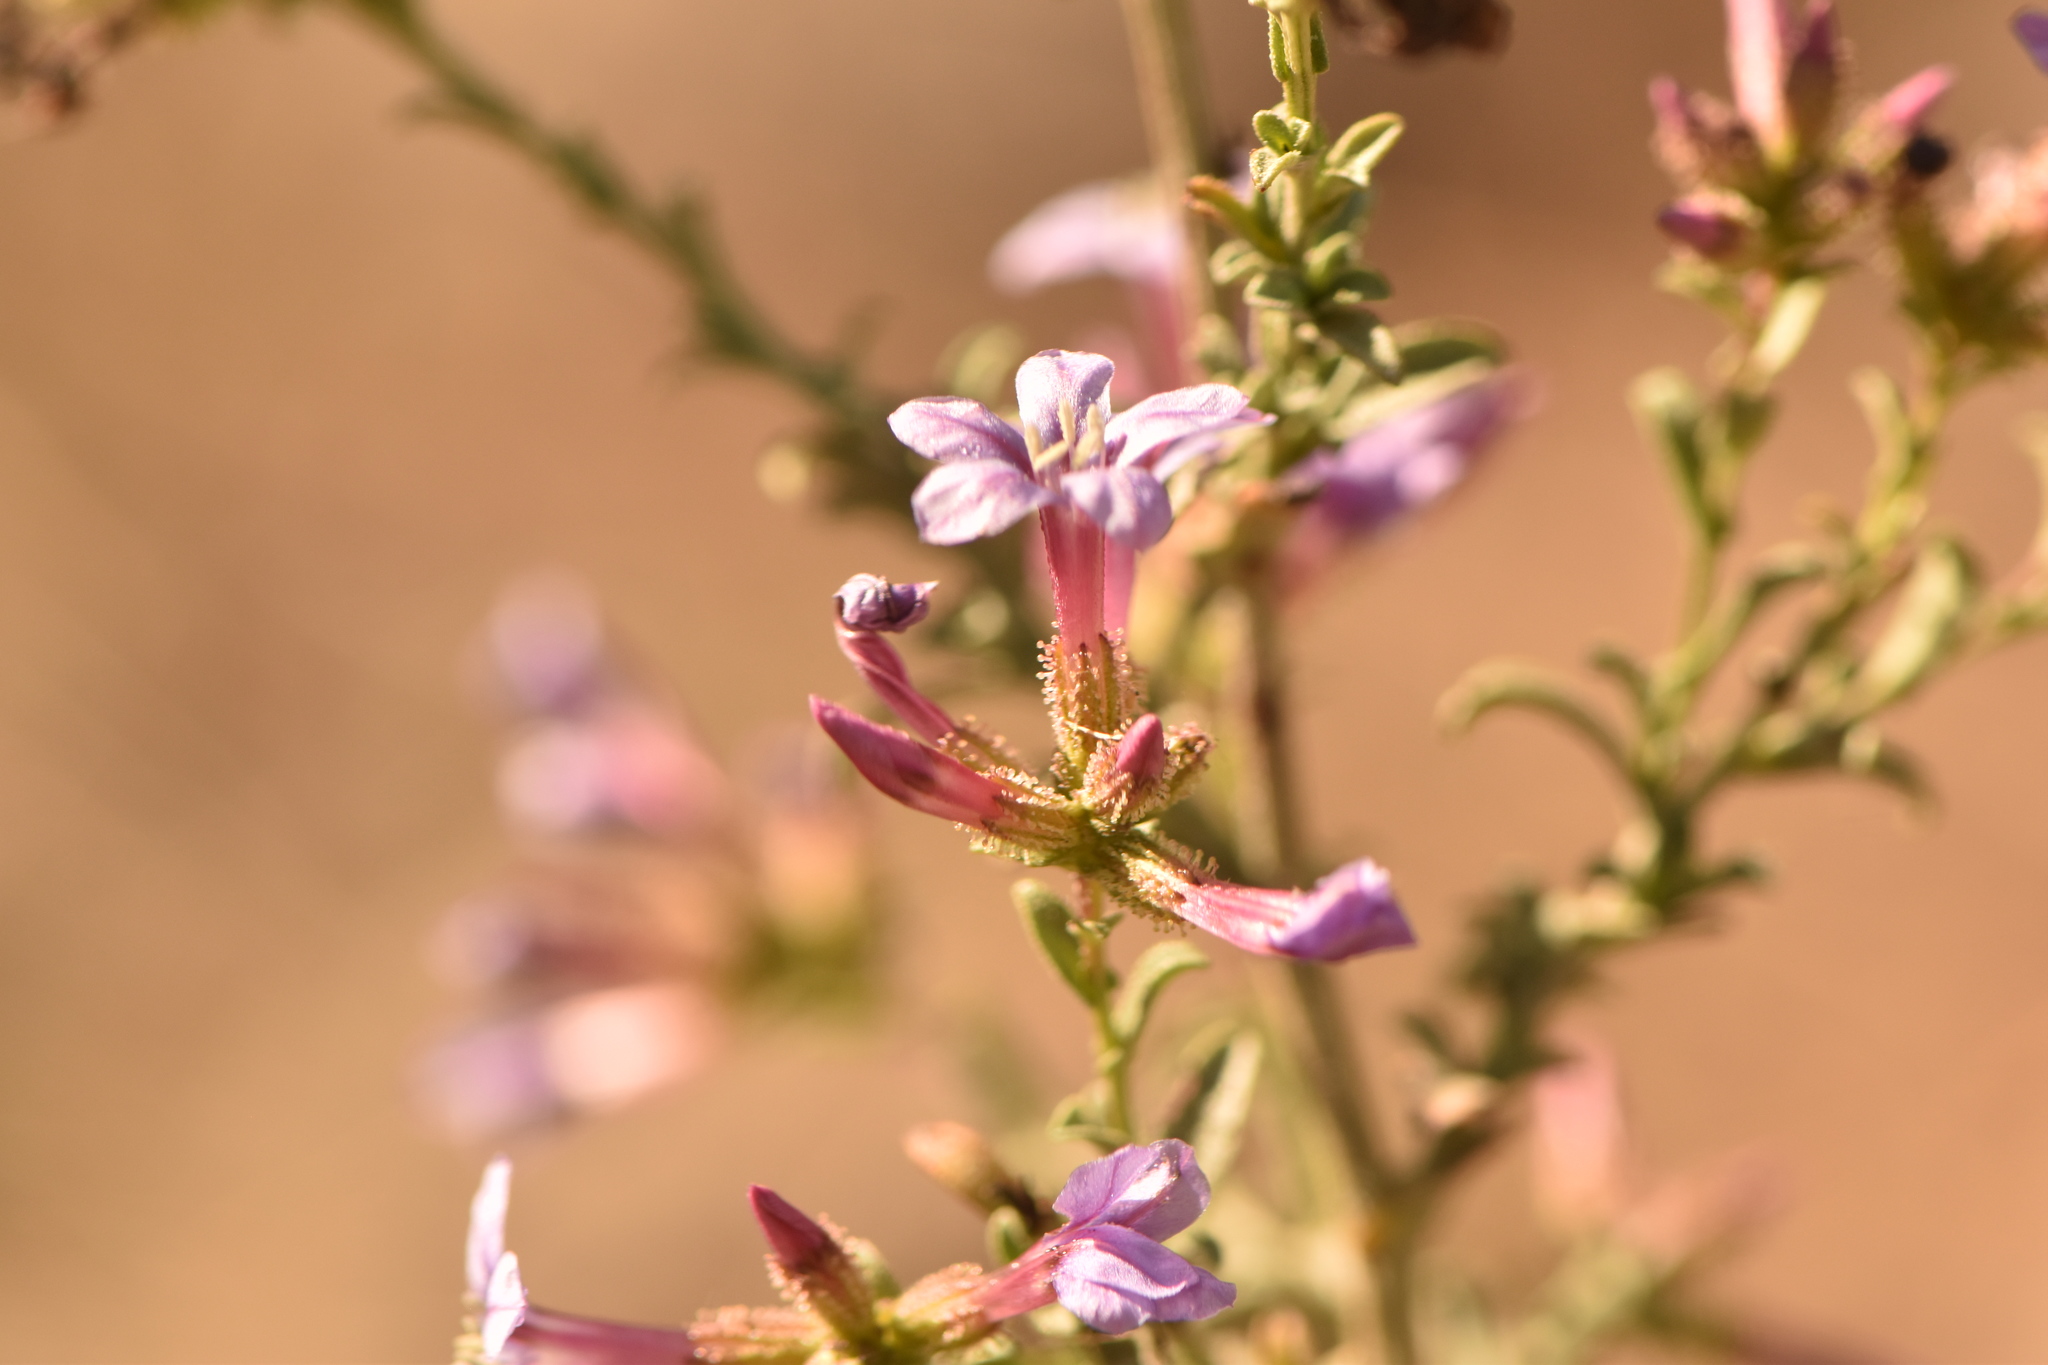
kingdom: Plantae
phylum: Tracheophyta
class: Magnoliopsida
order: Caryophyllales
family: Plumbaginaceae
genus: Plumbago
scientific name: Plumbago europaea
